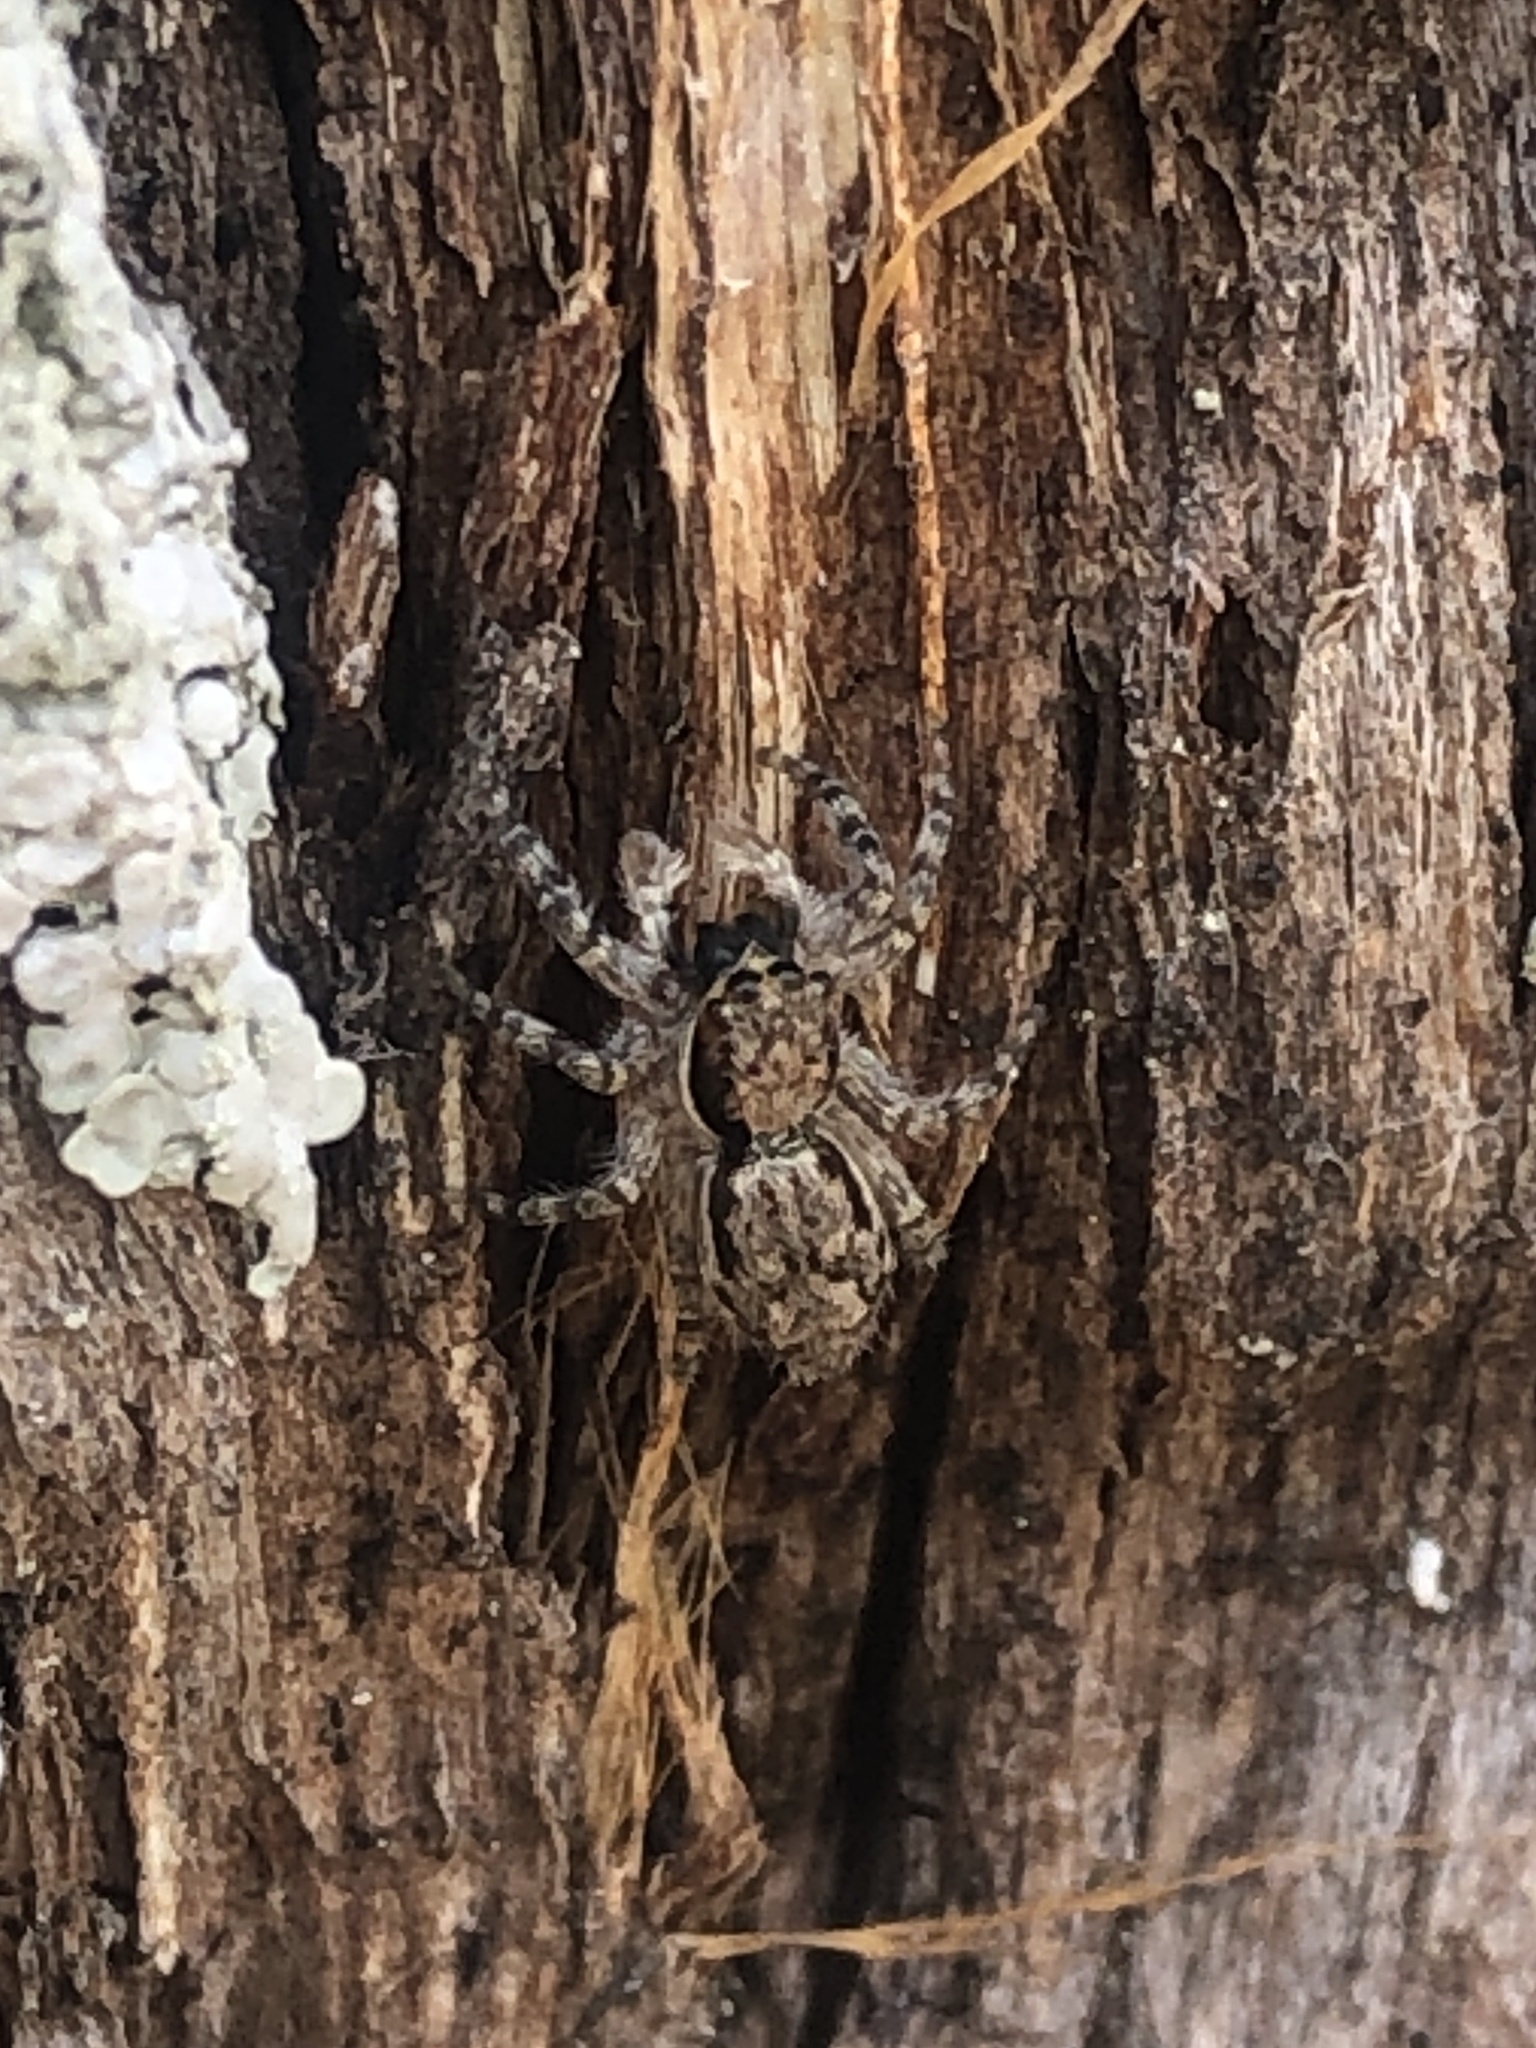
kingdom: Animalia
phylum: Arthropoda
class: Arachnida
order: Araneae
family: Salticidae
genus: Menemerus
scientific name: Menemerus bivittatus
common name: Gray wall jumper
